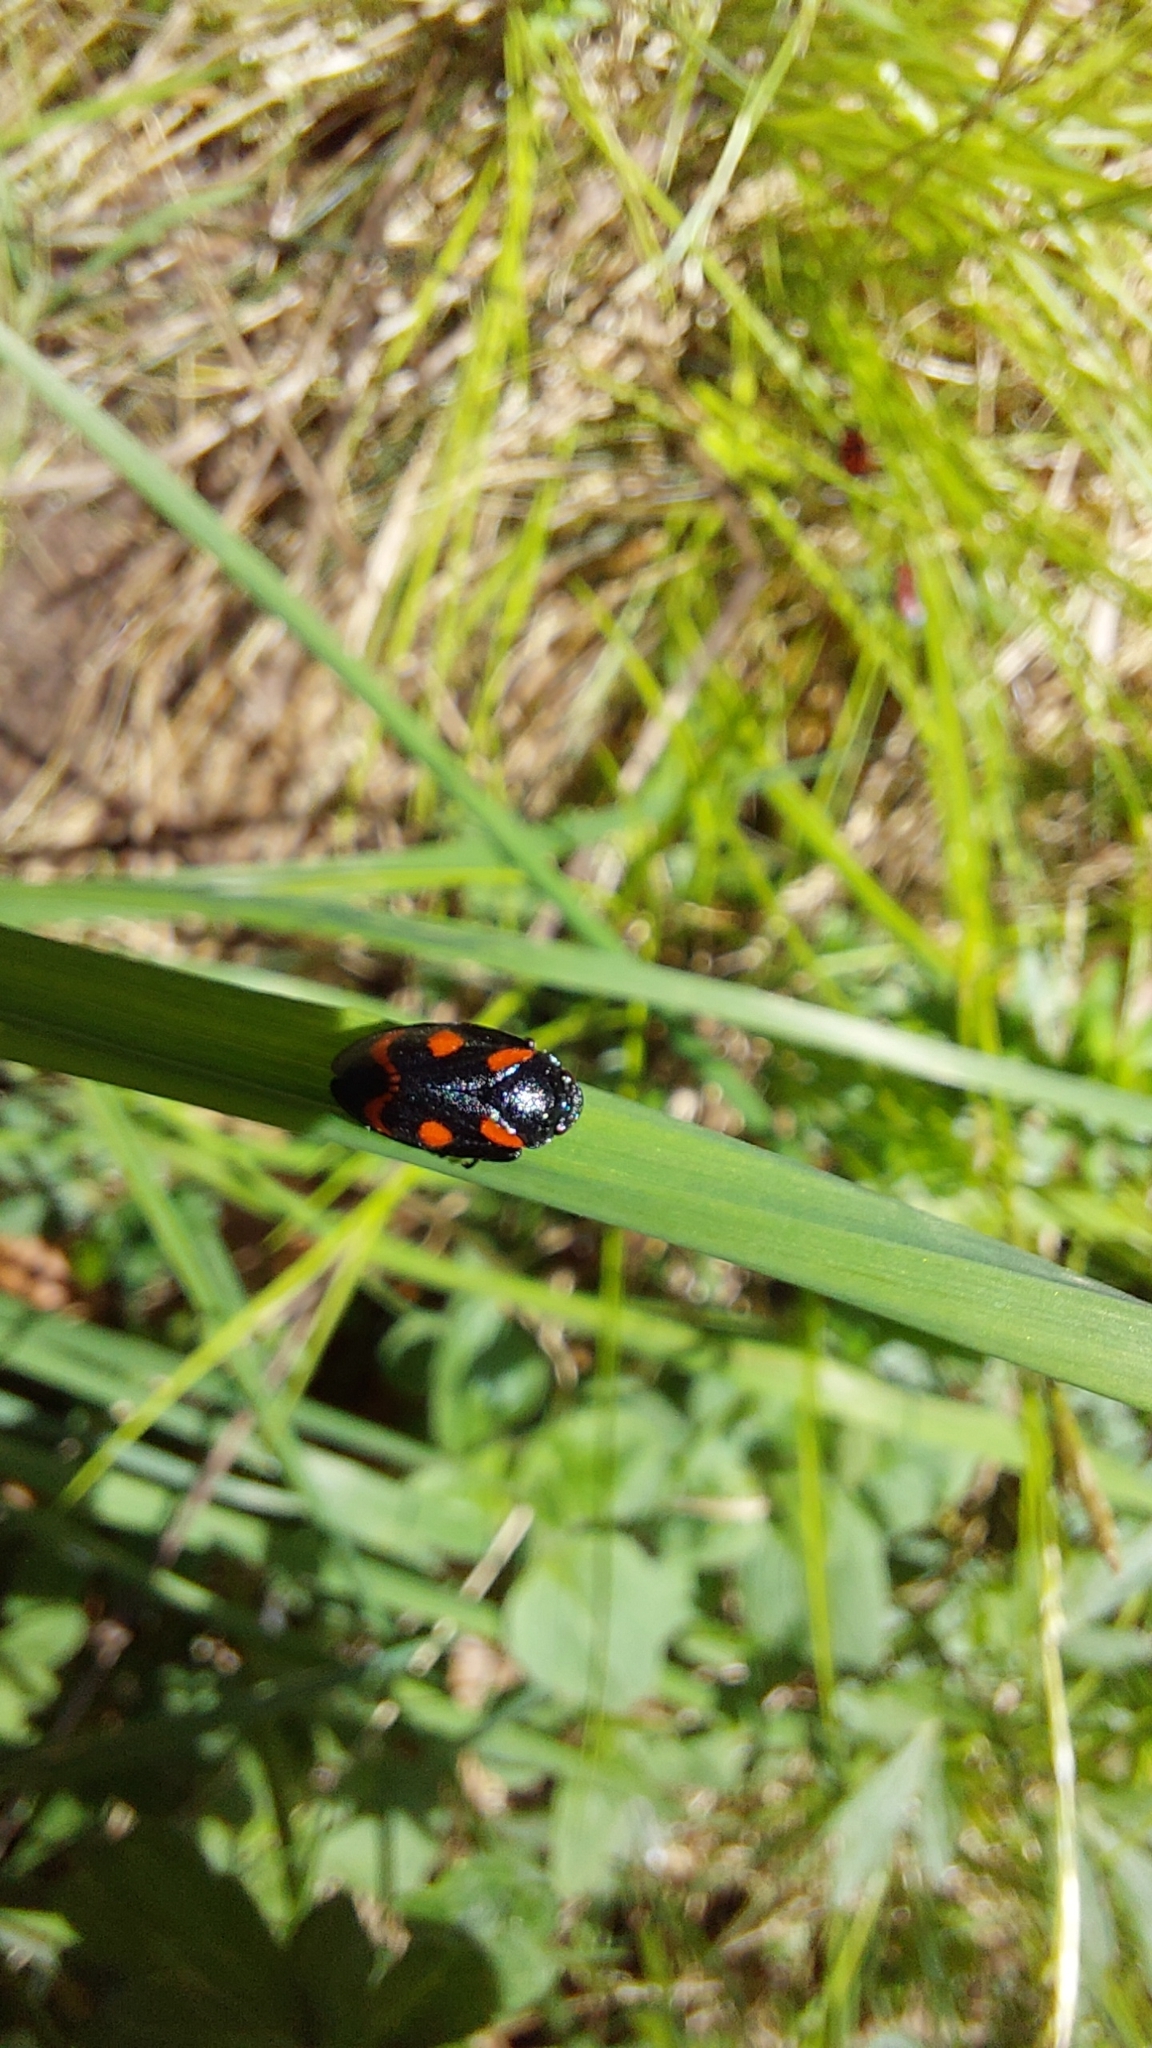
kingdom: Animalia
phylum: Arthropoda
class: Insecta
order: Hemiptera
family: Cercopidae
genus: Cercopis
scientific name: Cercopis sanguinolenta
